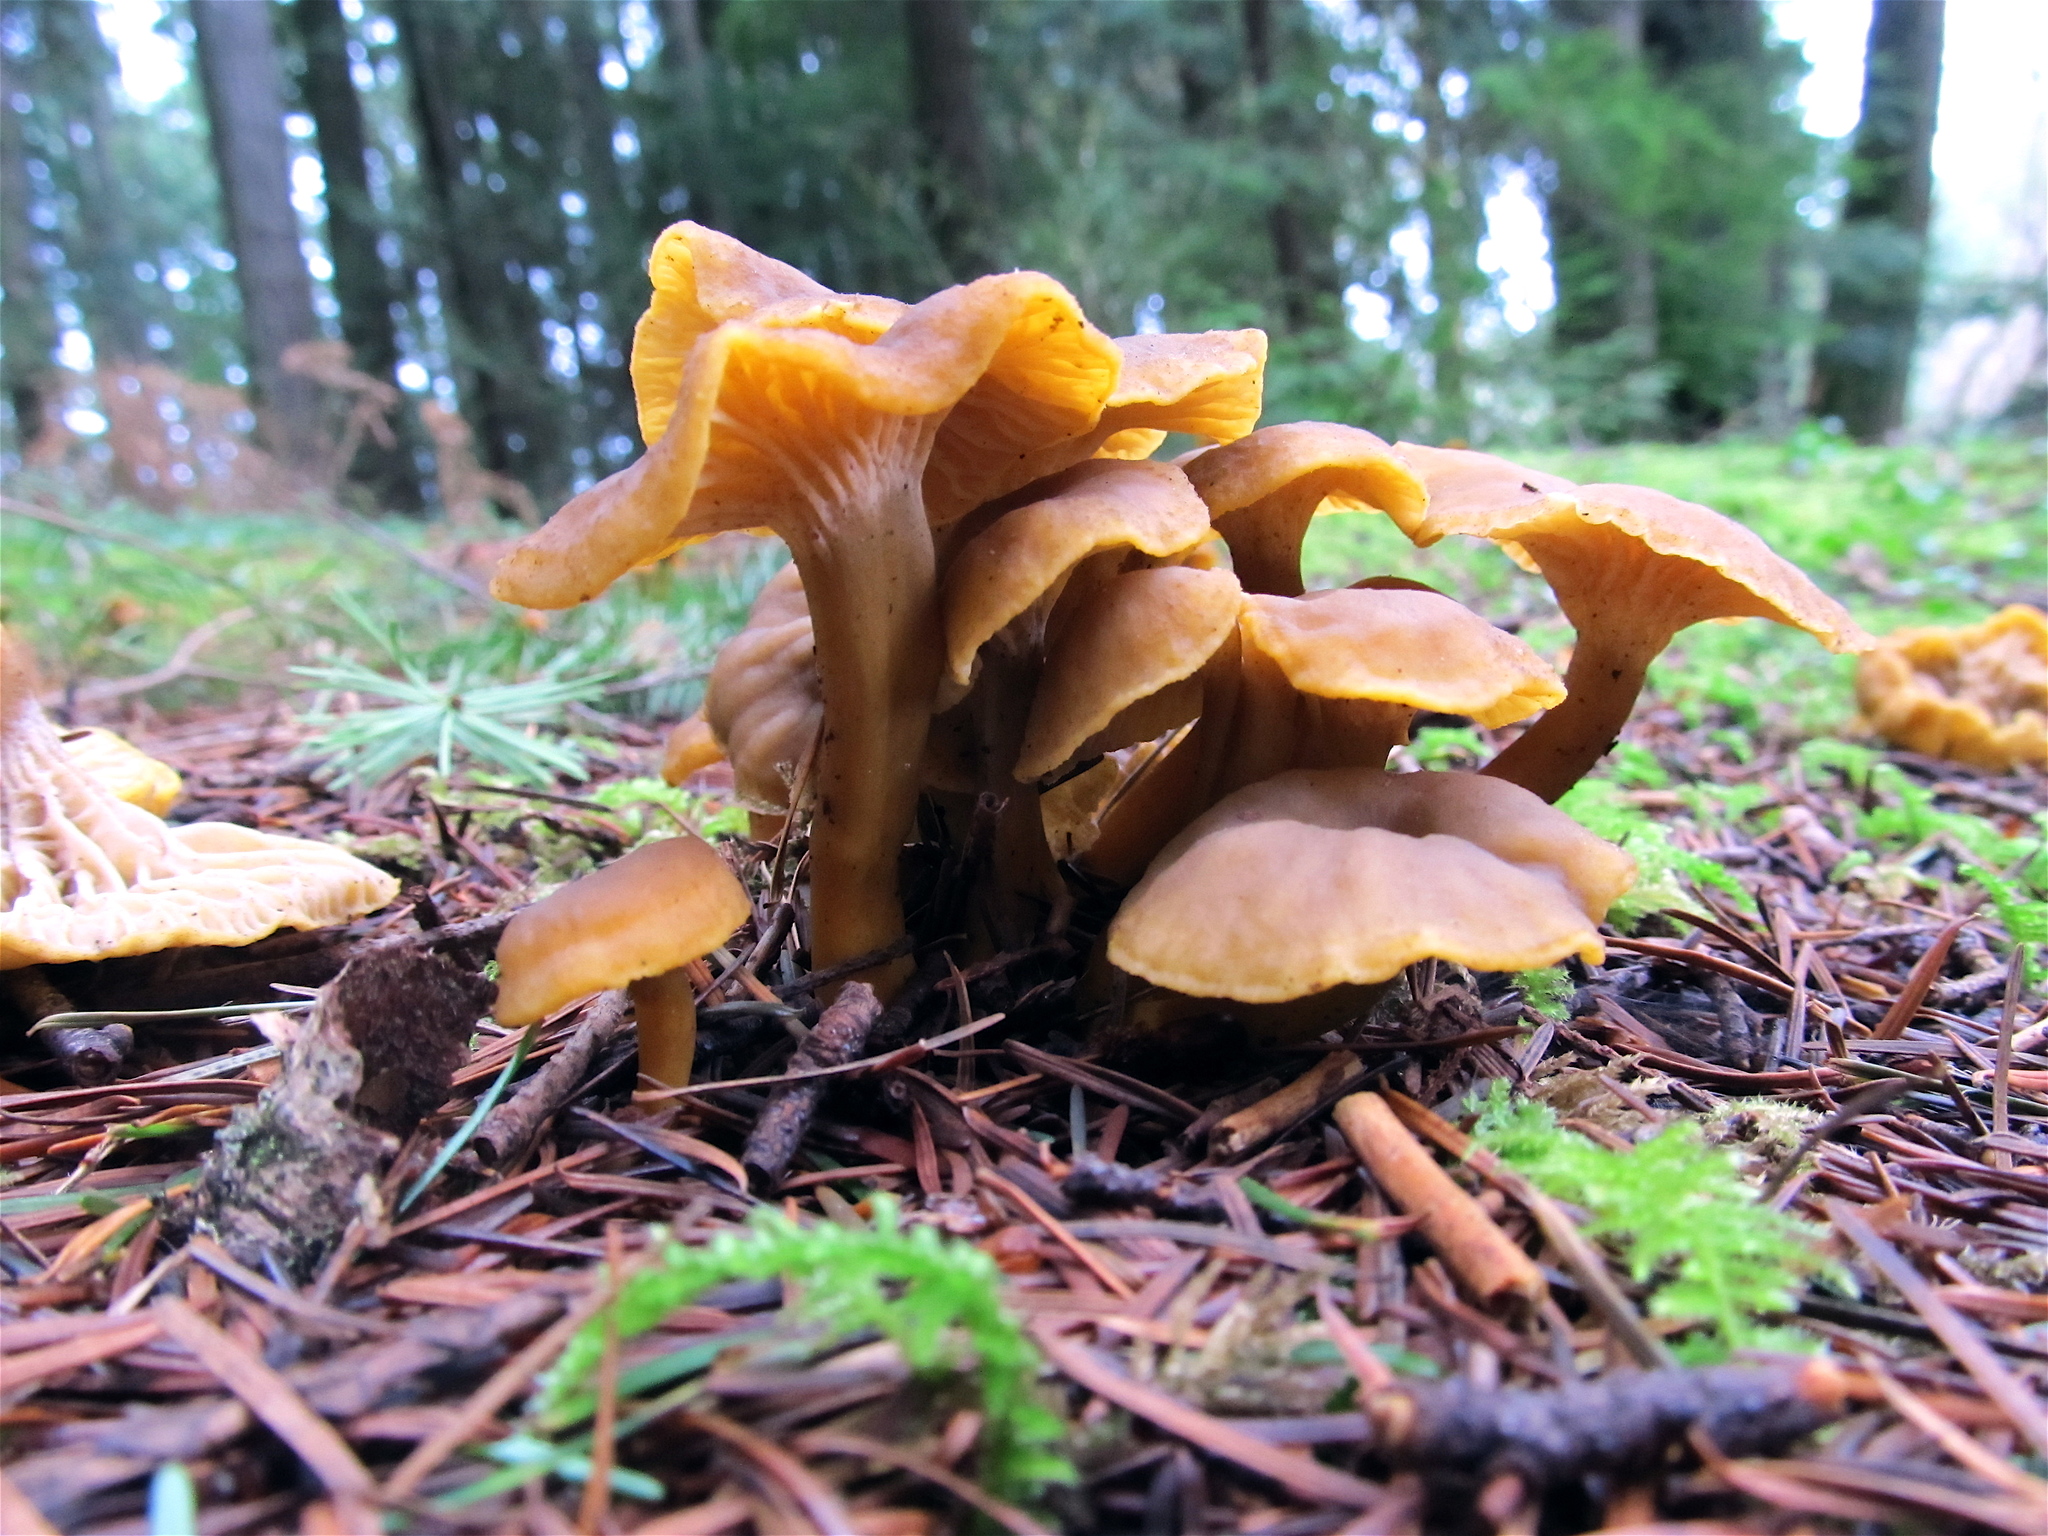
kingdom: Fungi
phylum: Basidiomycota
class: Agaricomycetes
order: Cantharellales
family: Hydnaceae
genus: Craterellus
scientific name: Craterellus tubaeformis
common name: Yellowfoot
